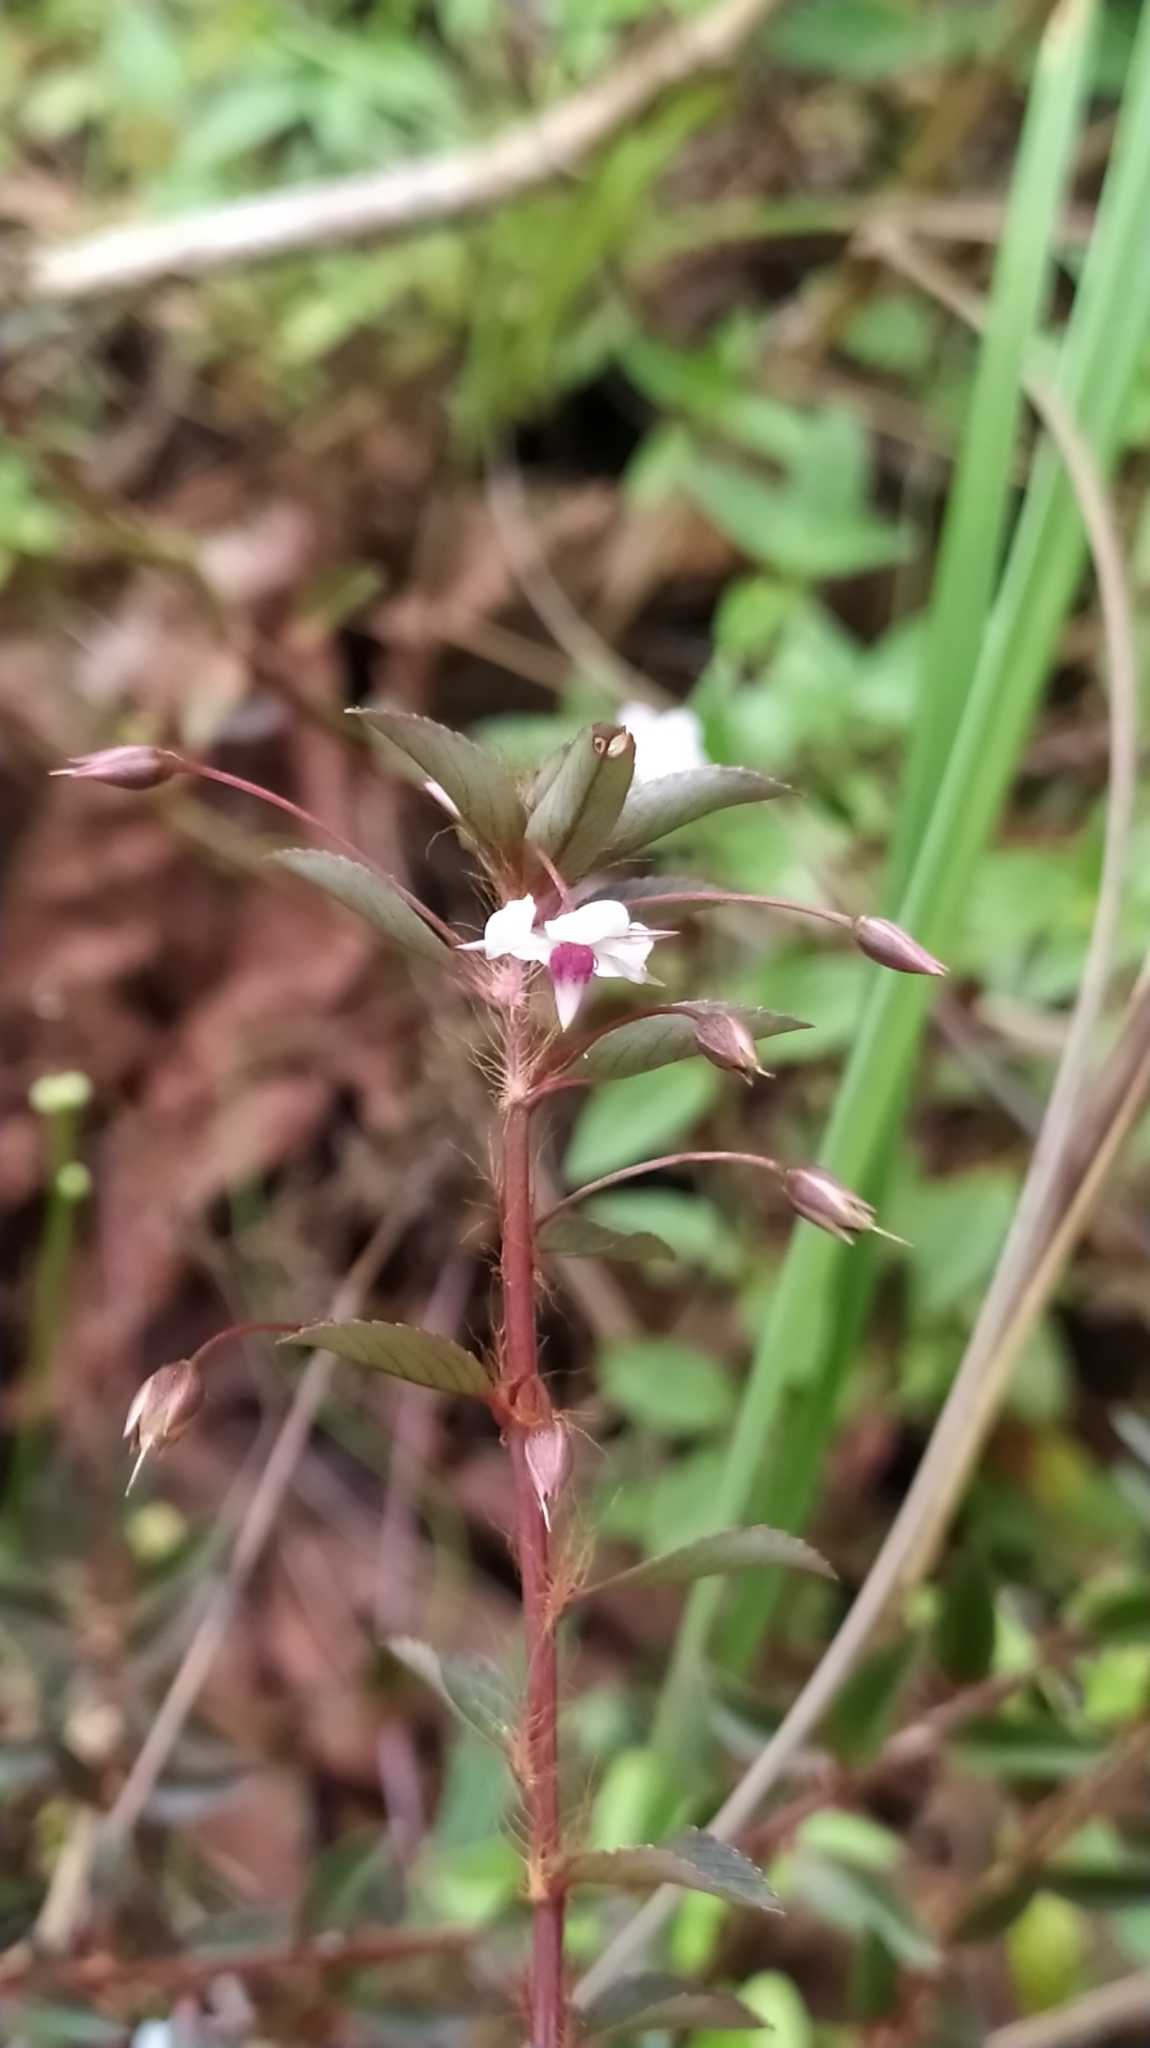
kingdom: Plantae
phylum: Tracheophyta
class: Magnoliopsida
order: Malpighiales
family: Ochnaceae
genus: Sauvagesia
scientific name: Sauvagesia erecta
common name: Creole tea
